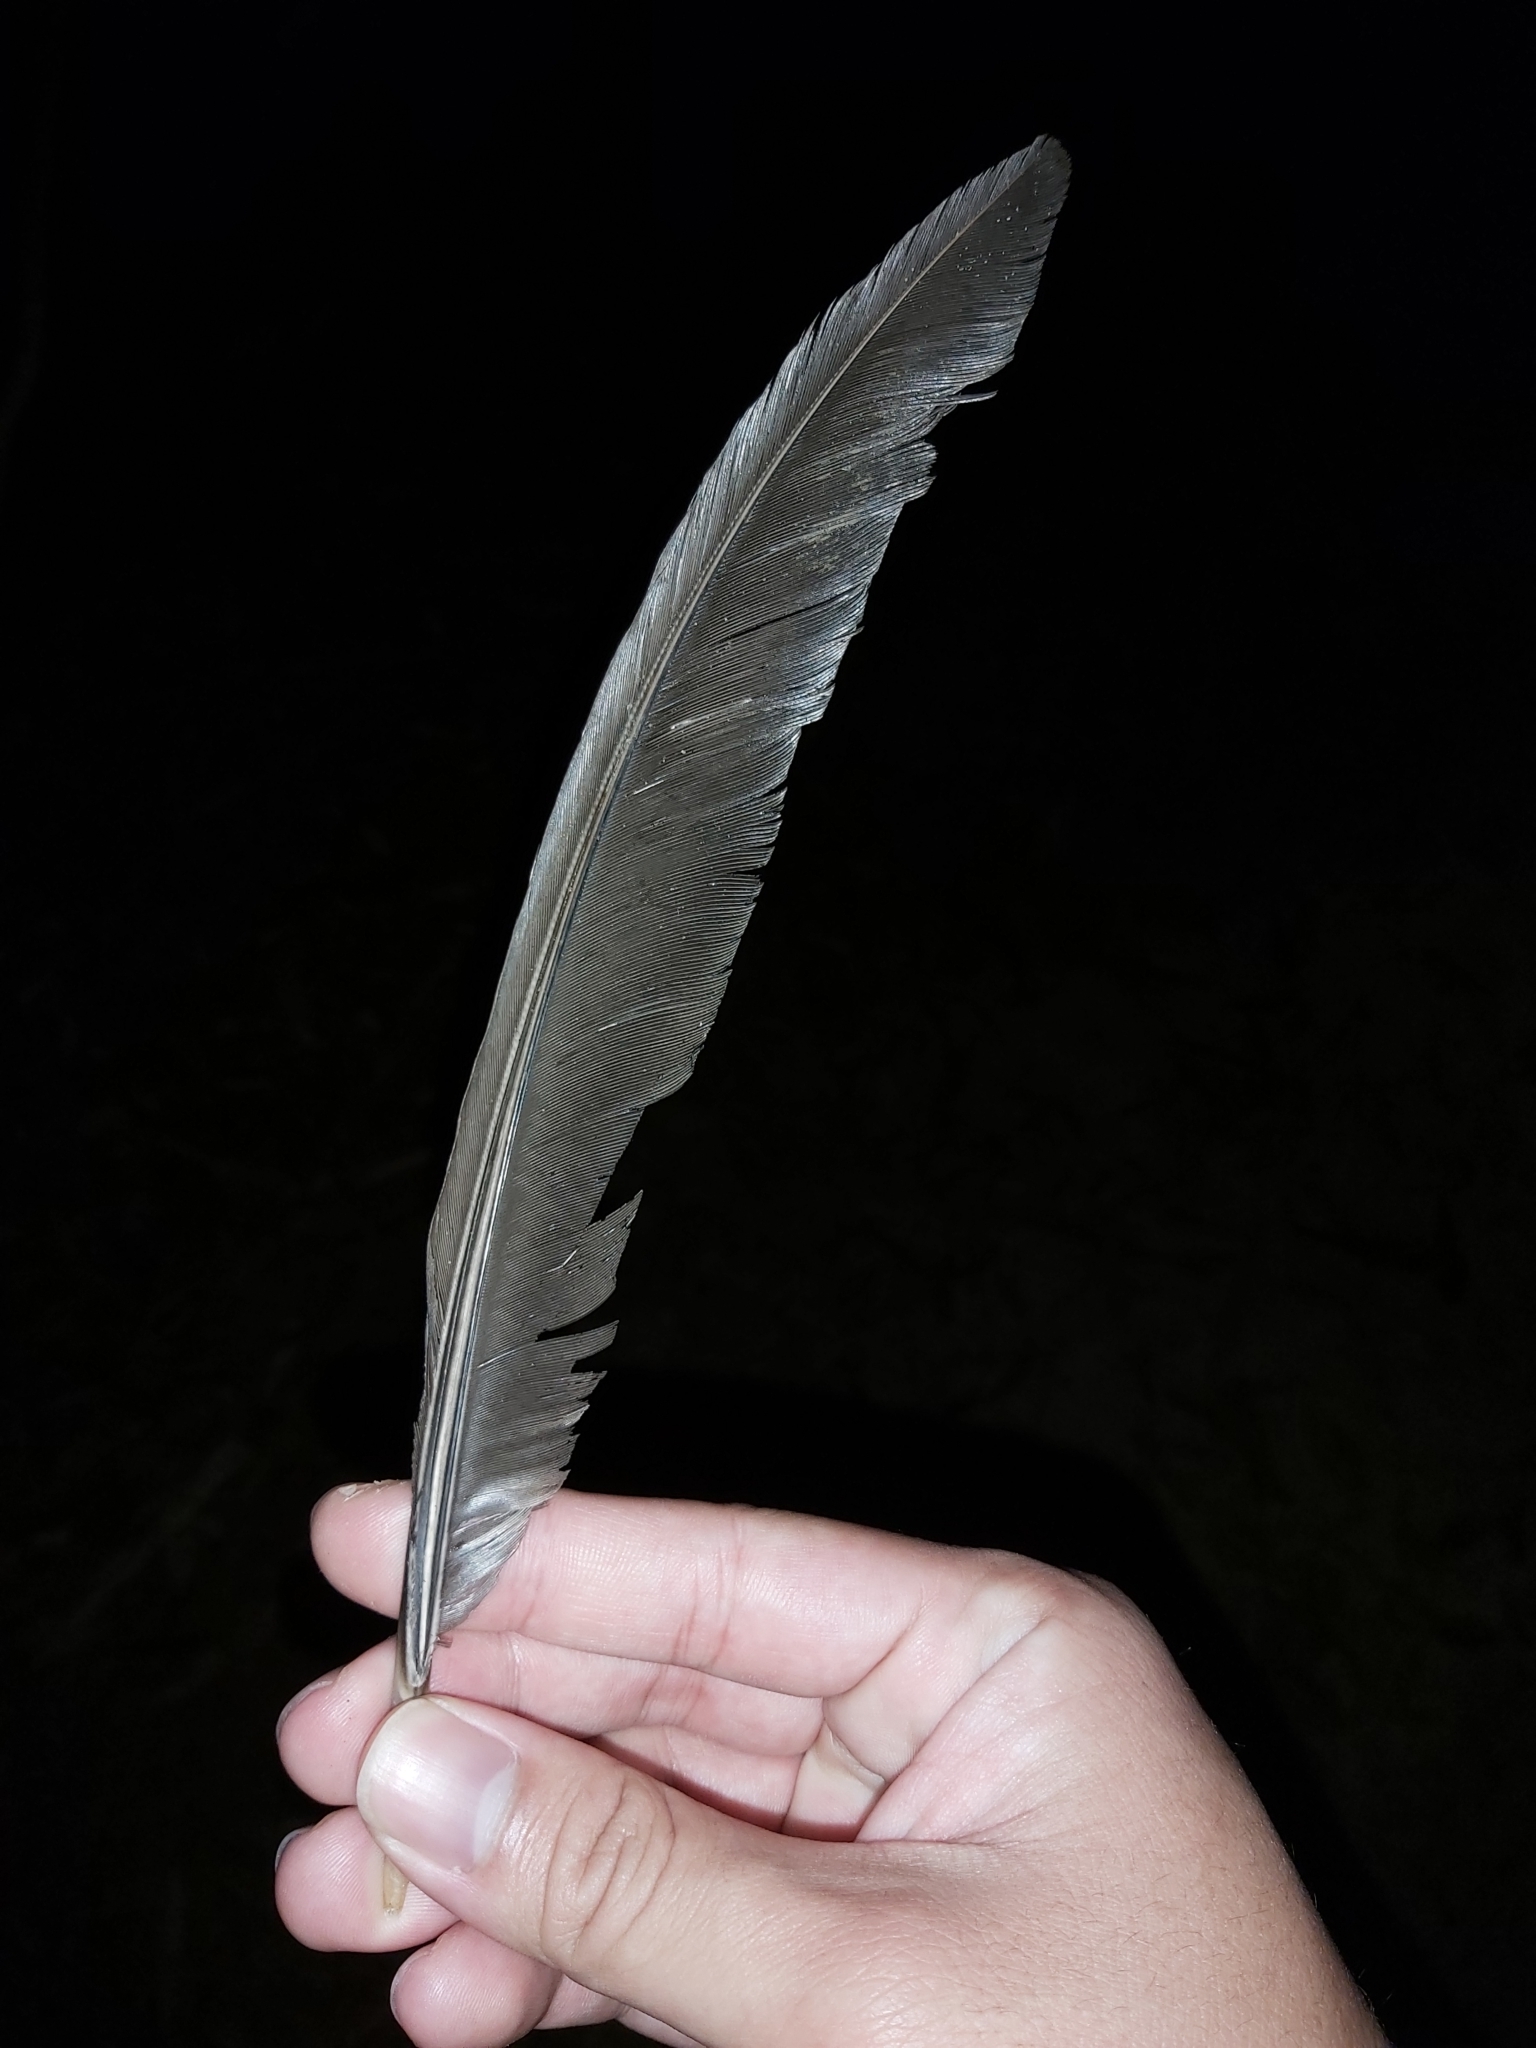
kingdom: Animalia
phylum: Chordata
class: Aves
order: Galliformes
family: Megapodiidae
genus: Alectura
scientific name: Alectura lathami
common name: Australian brushturkey
